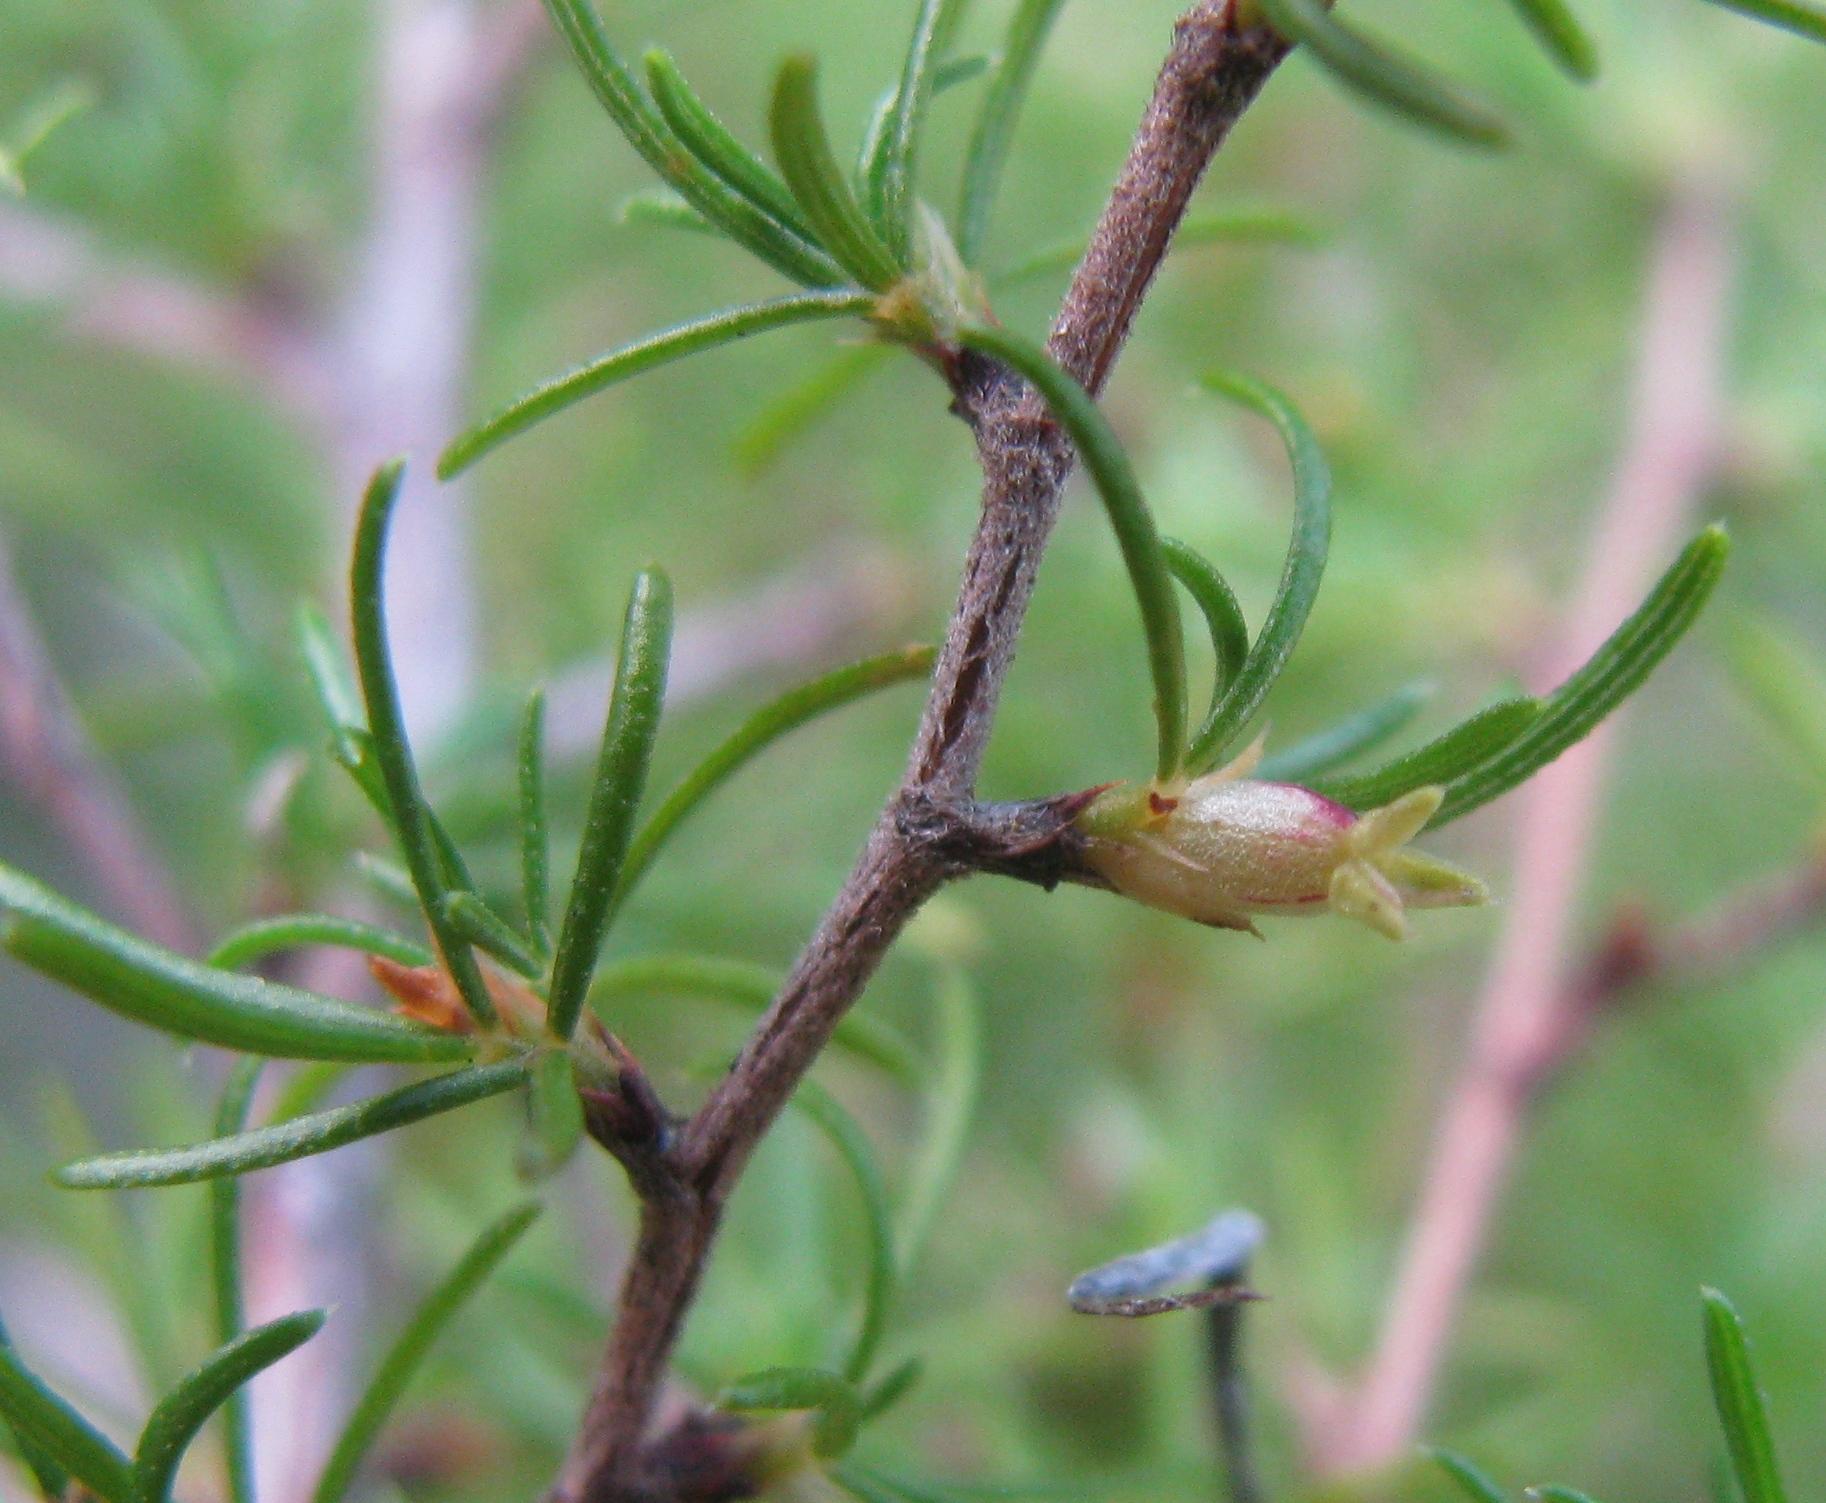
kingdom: Plantae
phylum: Tracheophyta
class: Magnoliopsida
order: Rosales
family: Rosaceae
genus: Cliffortia
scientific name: Cliffortia ramosissima
